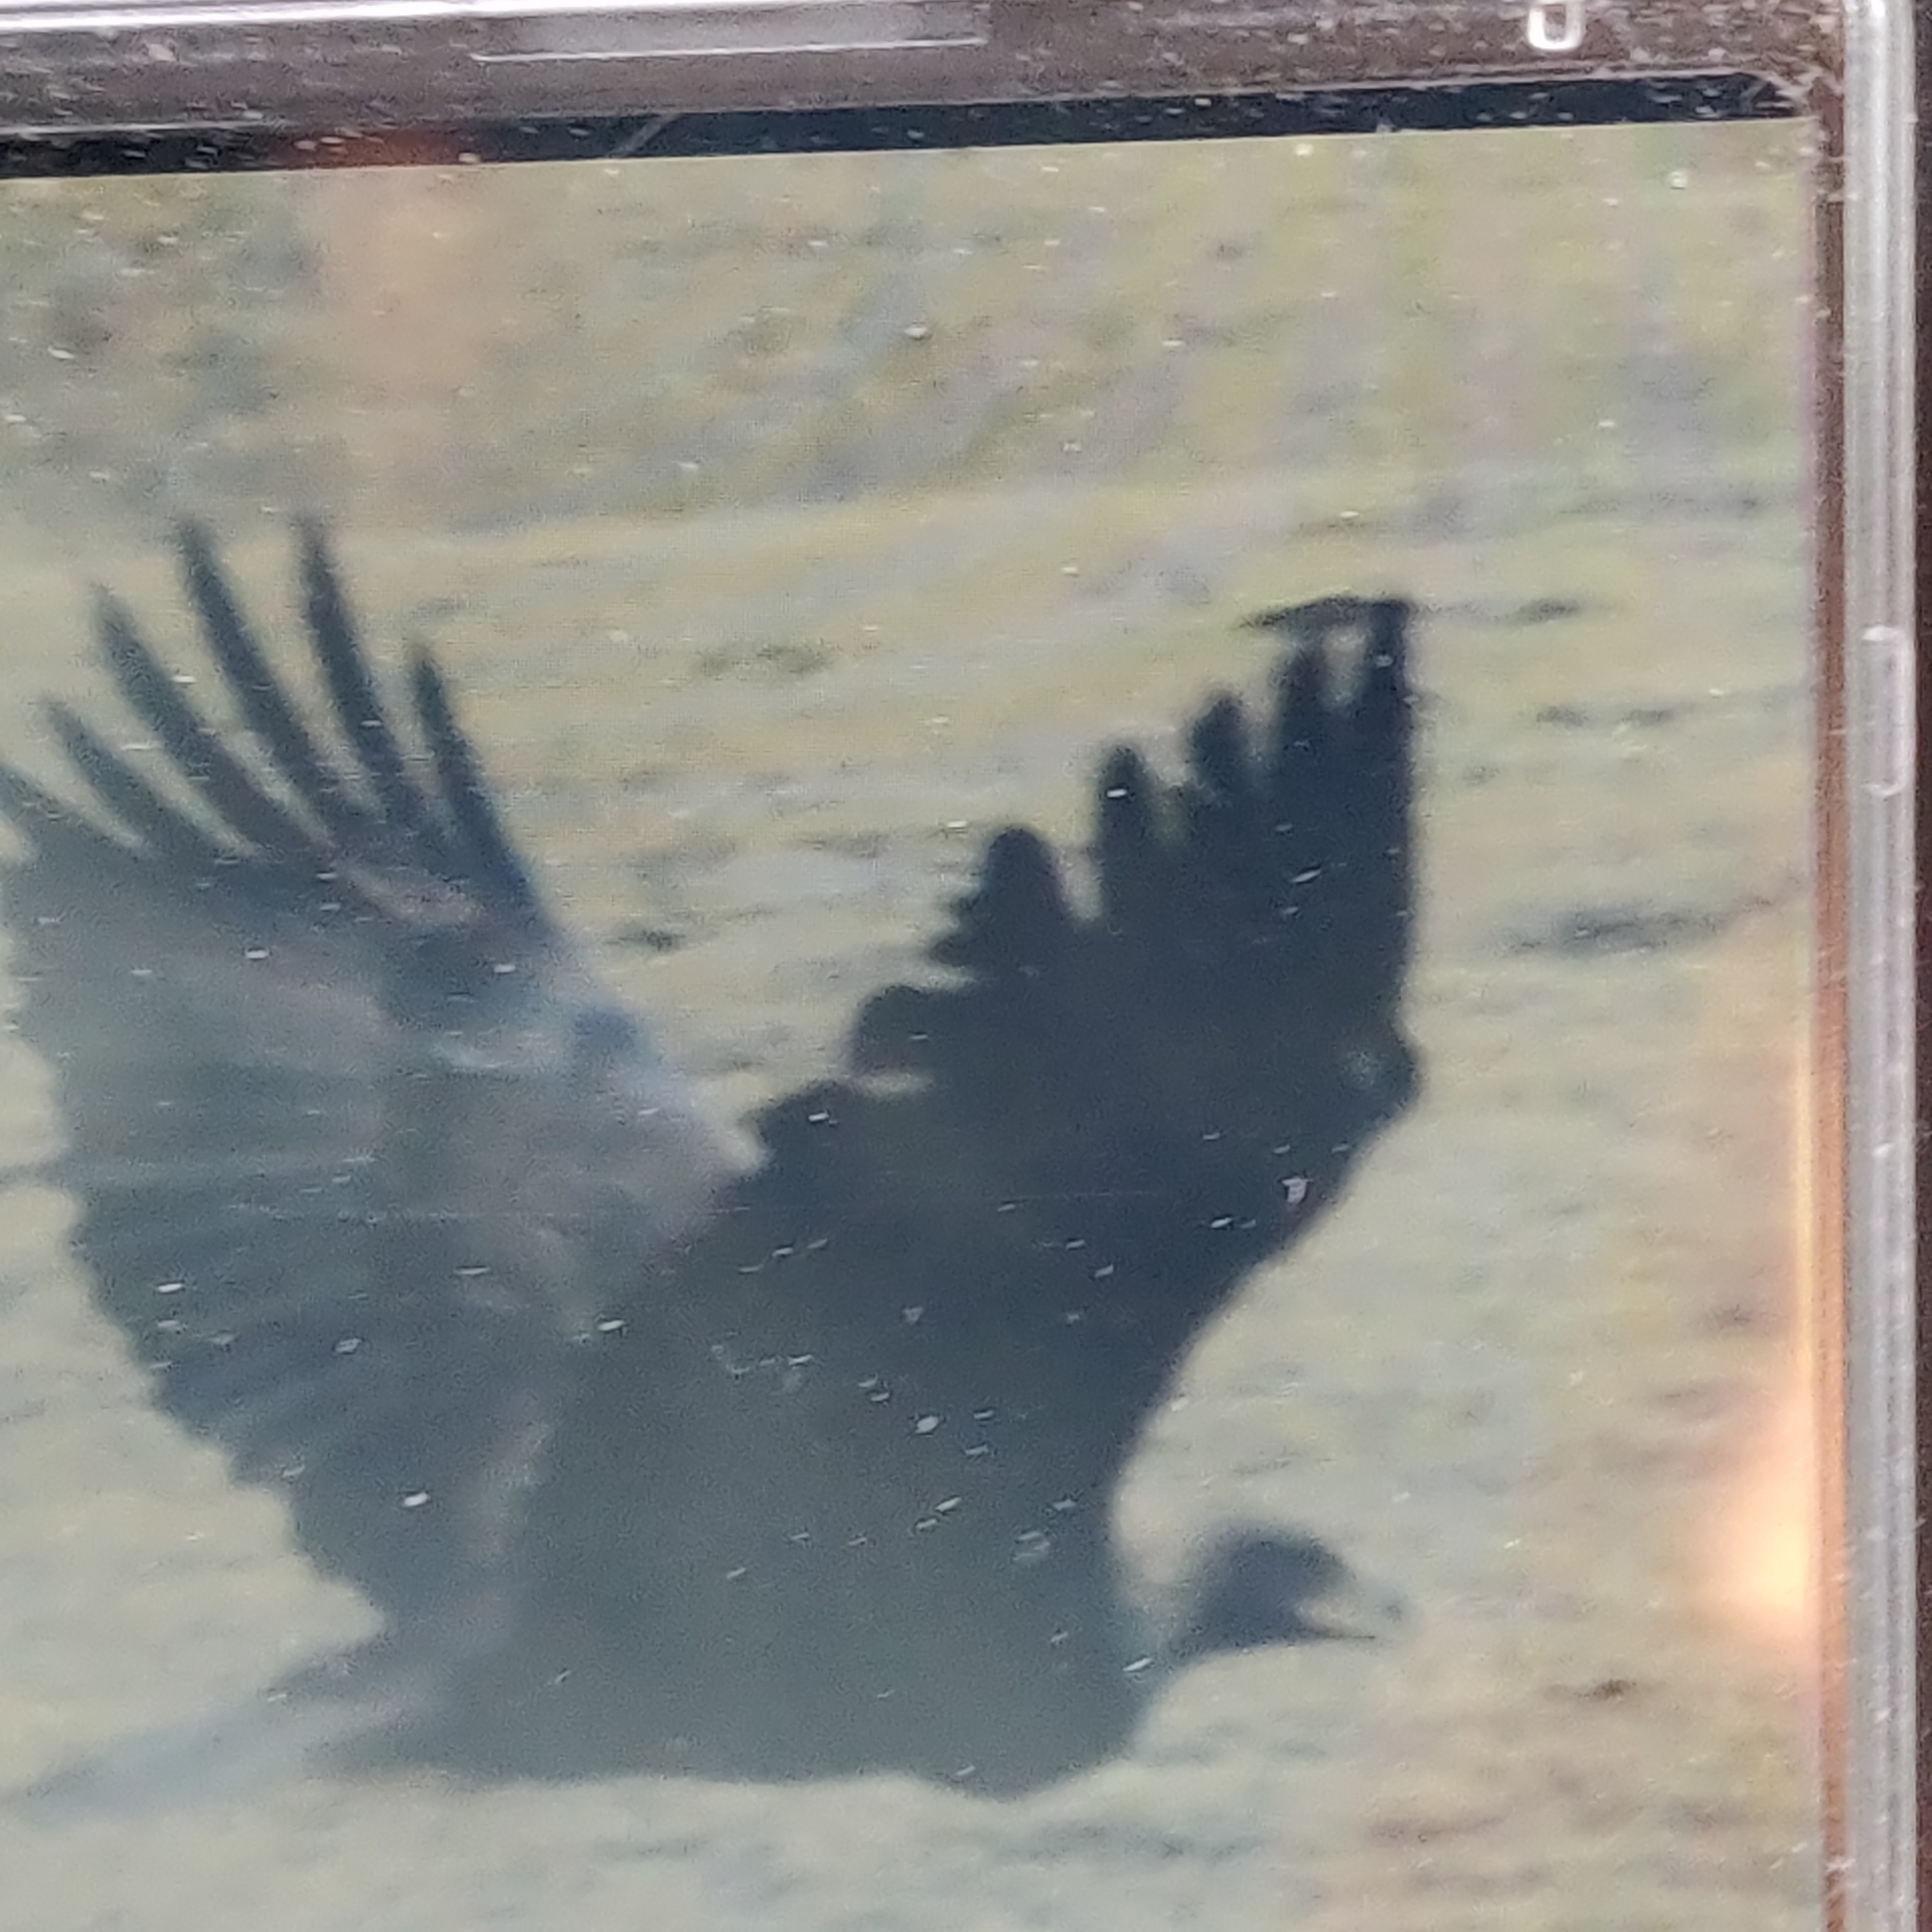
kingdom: Animalia
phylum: Chordata
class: Aves
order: Accipitriformes
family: Accipitridae
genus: Aquila
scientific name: Aquila chrysaetos
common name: Golden eagle
